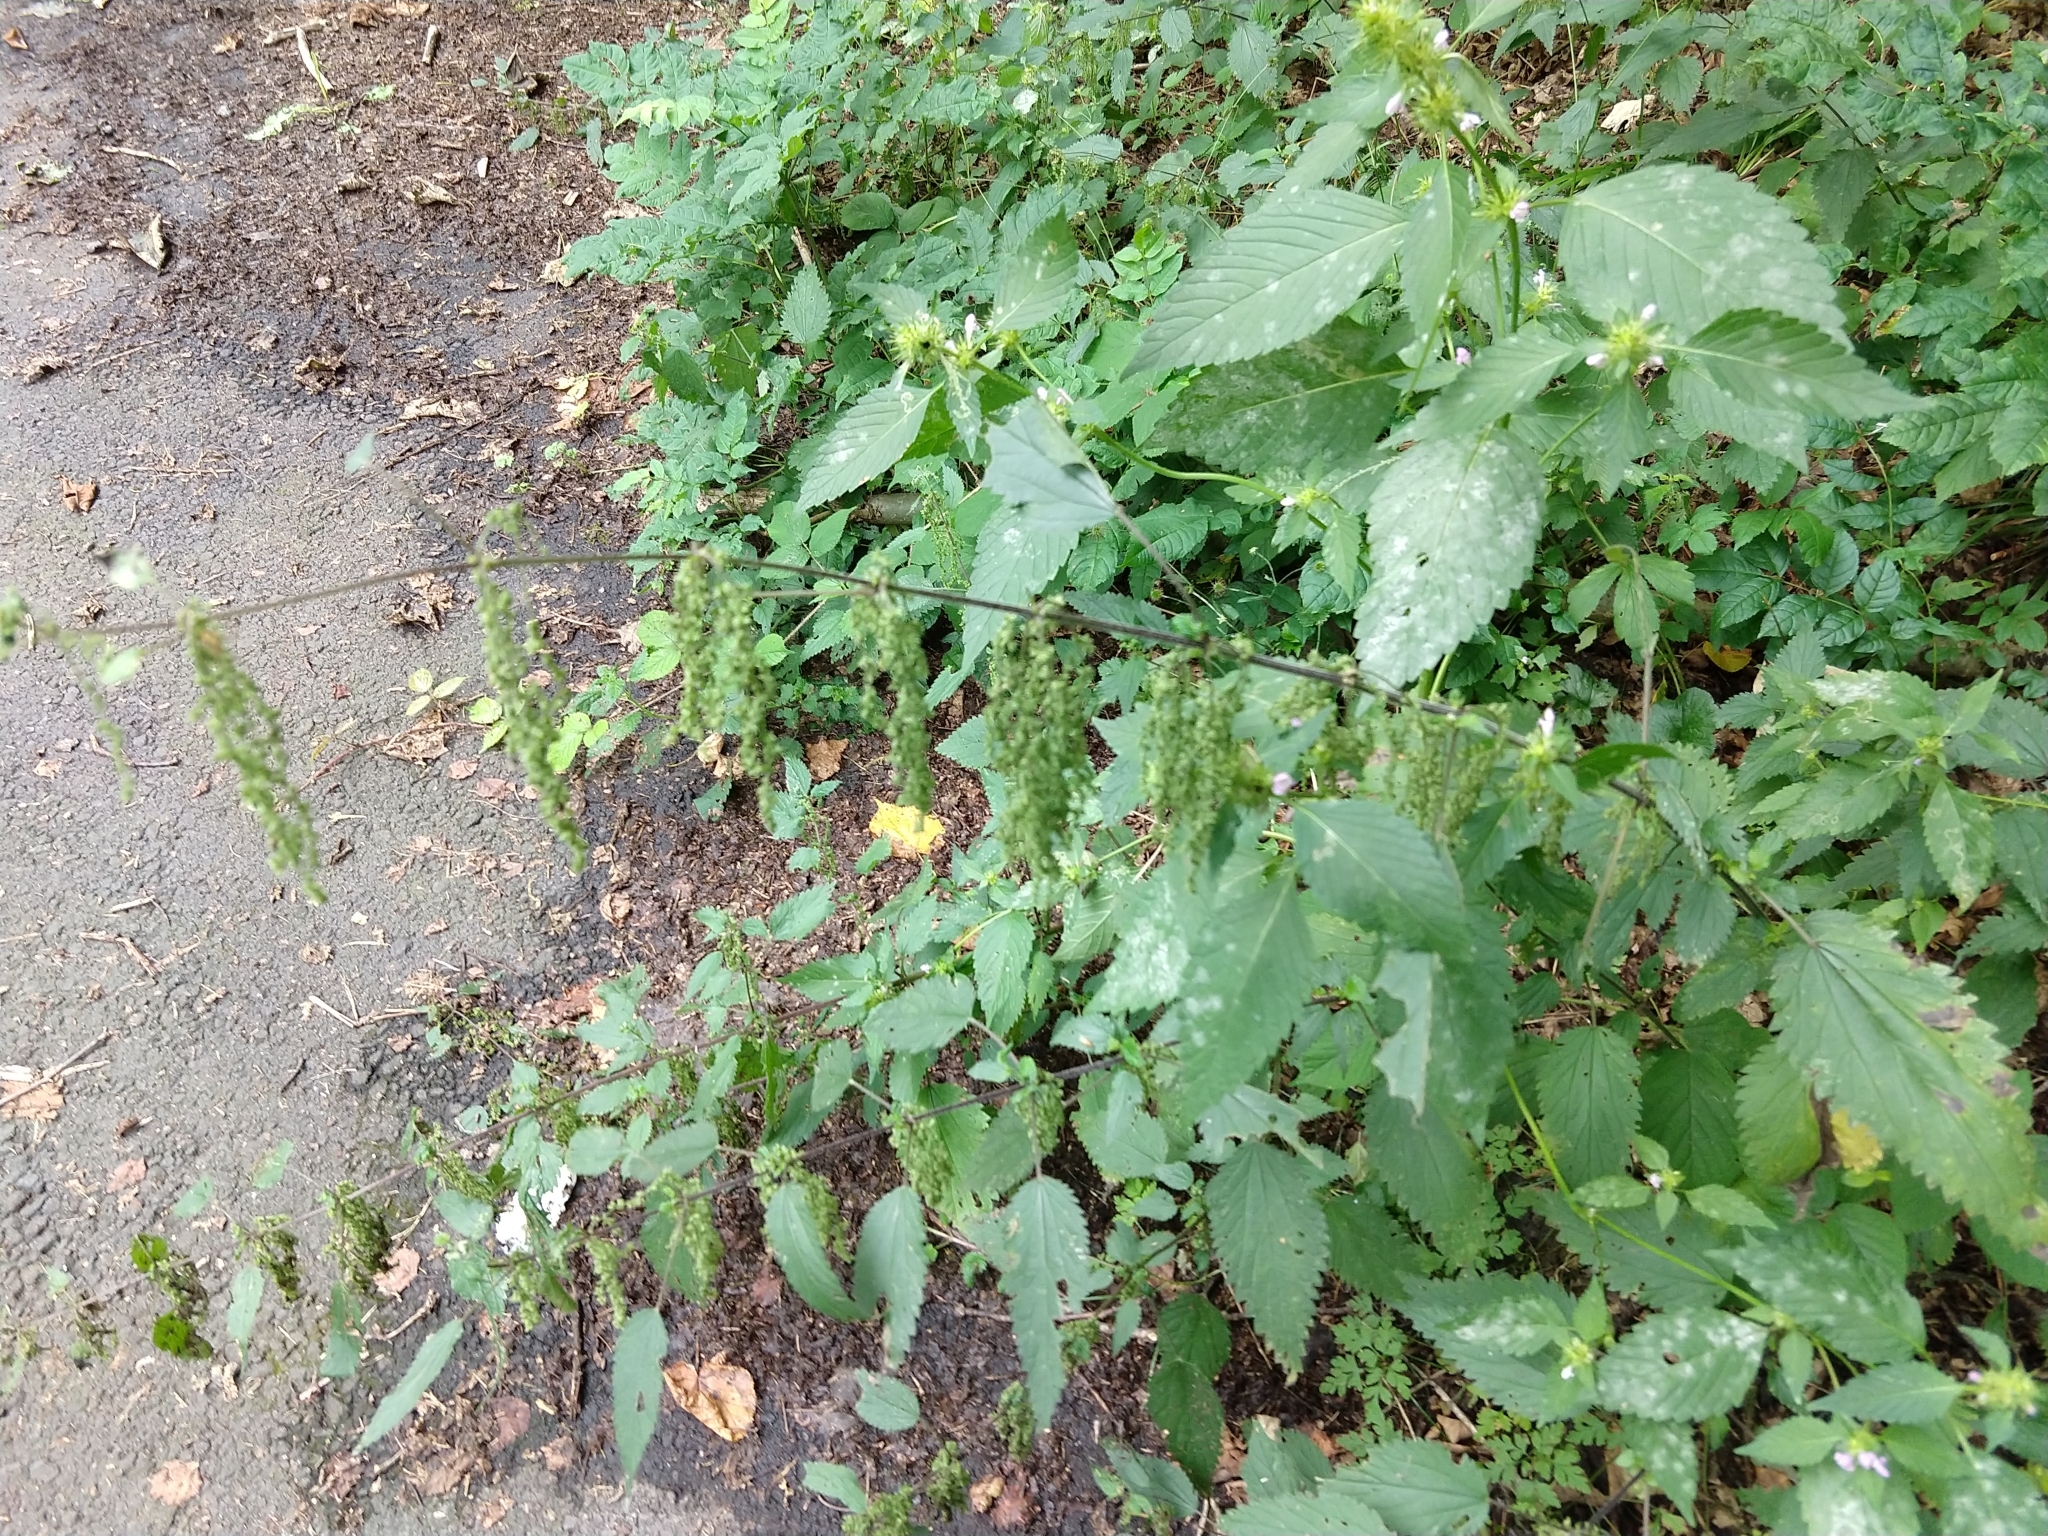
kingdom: Plantae
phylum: Tracheophyta
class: Magnoliopsida
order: Rosales
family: Urticaceae
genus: Urtica
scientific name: Urtica dioica
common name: Common nettle
